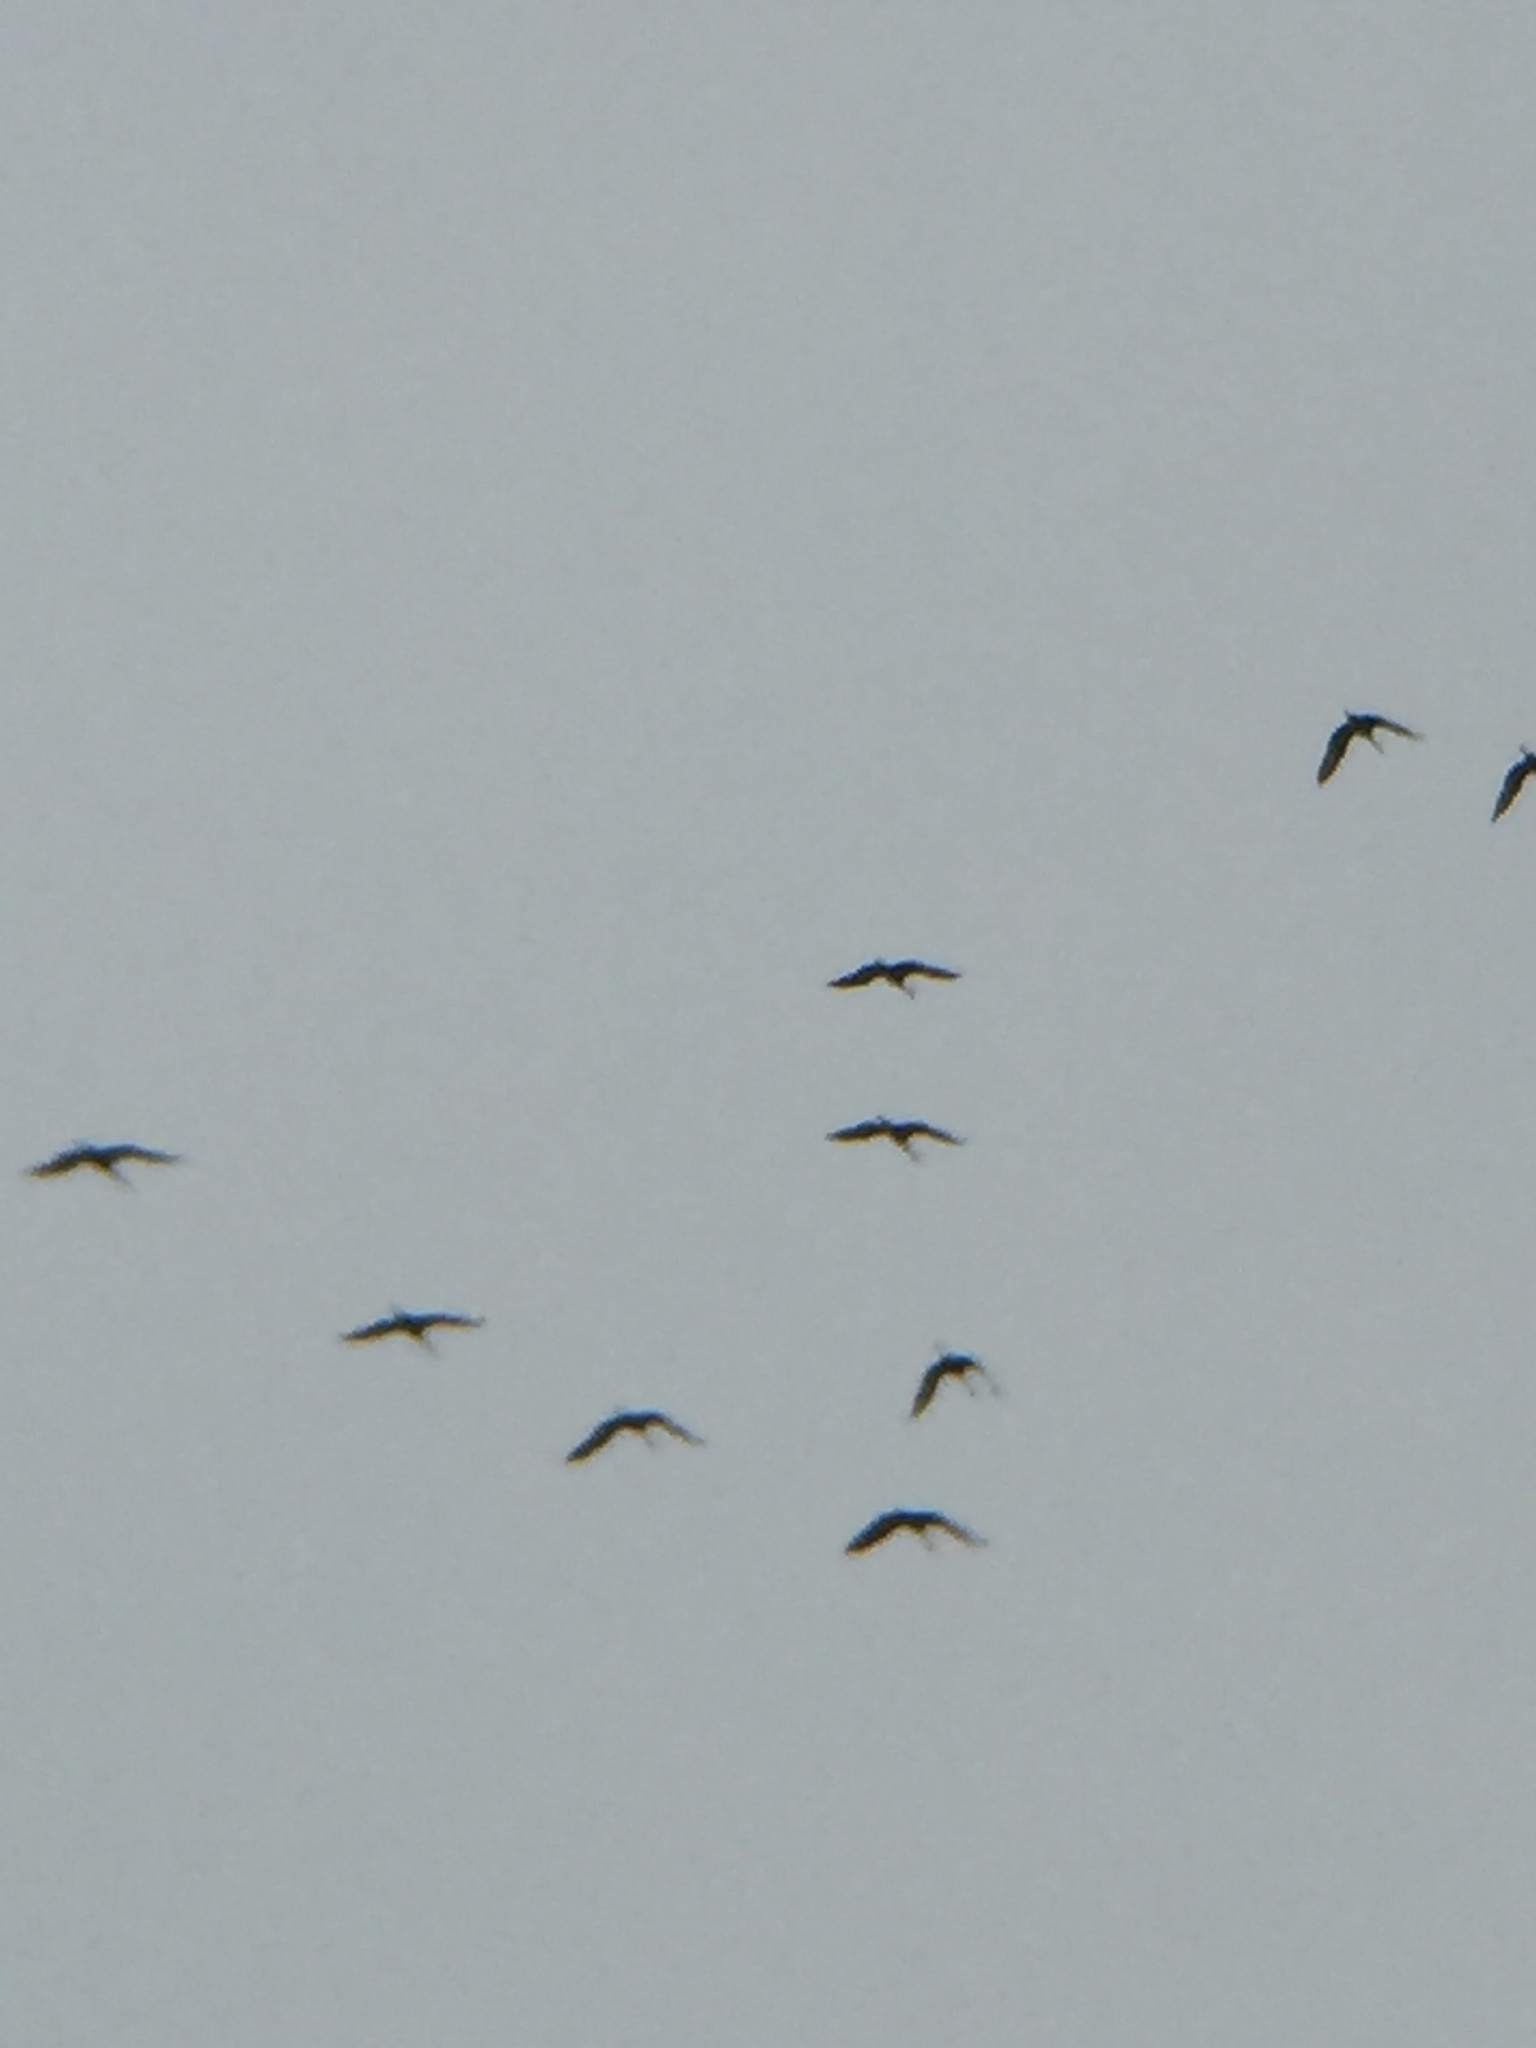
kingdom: Animalia
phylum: Chordata
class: Aves
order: Gruiformes
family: Gruidae
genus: Grus
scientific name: Grus canadensis
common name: Sandhill crane
